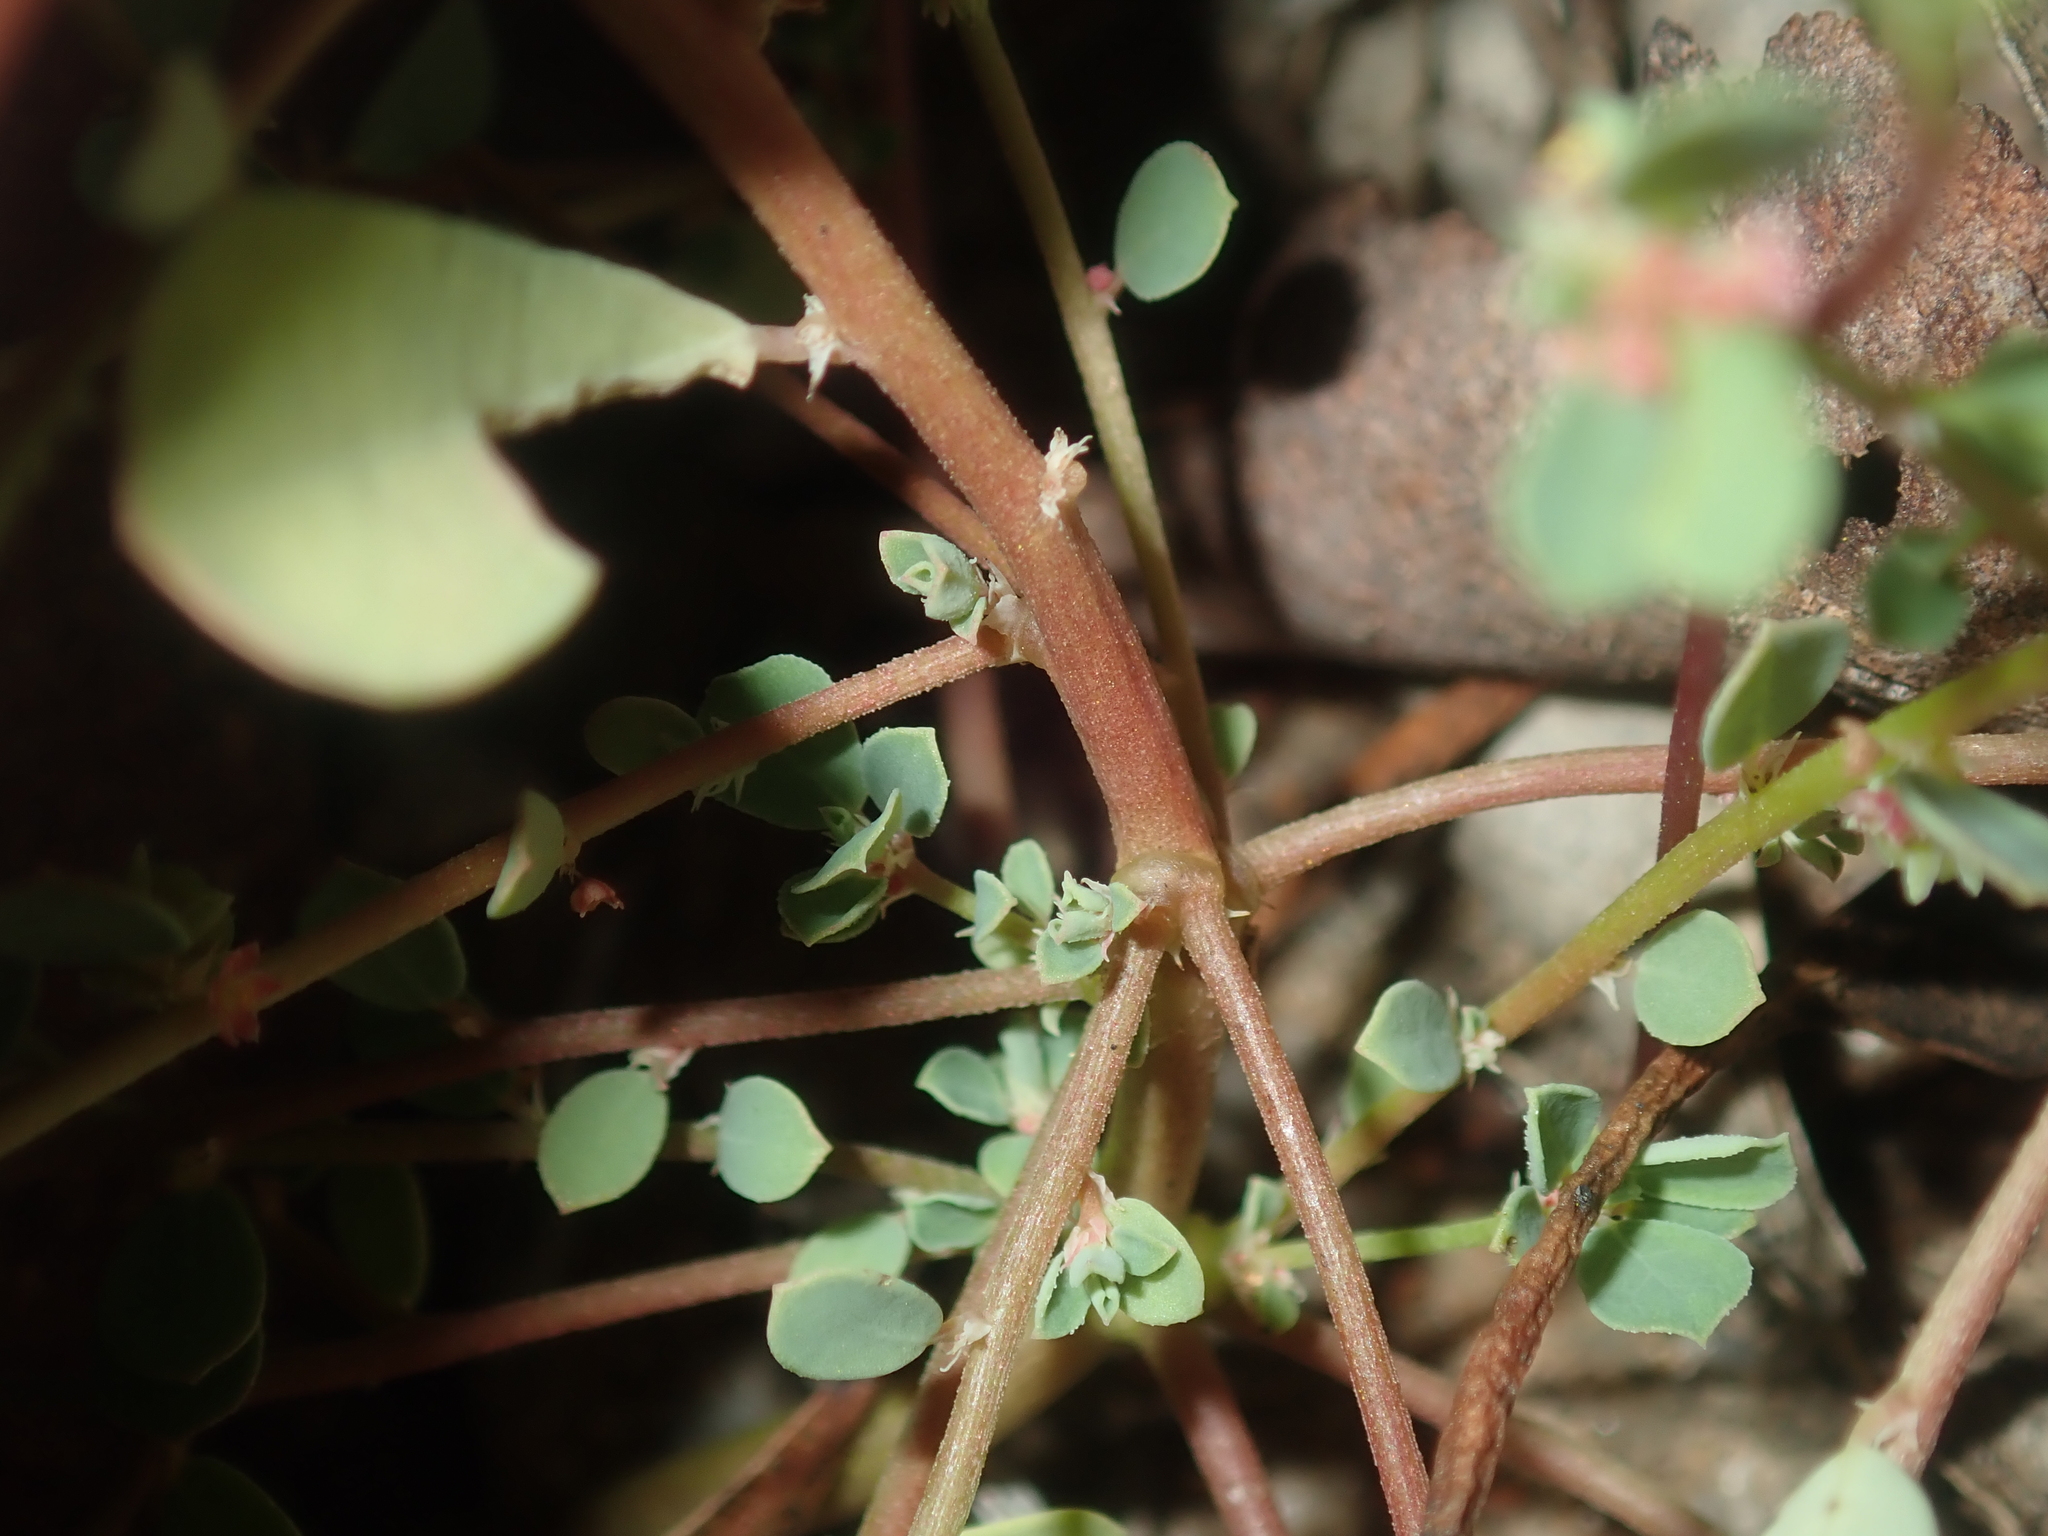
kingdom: Plantae
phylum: Tracheophyta
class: Magnoliopsida
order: Malpighiales
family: Phyllanthaceae
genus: Phyllanthus
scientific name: Phyllanthus erwinii
